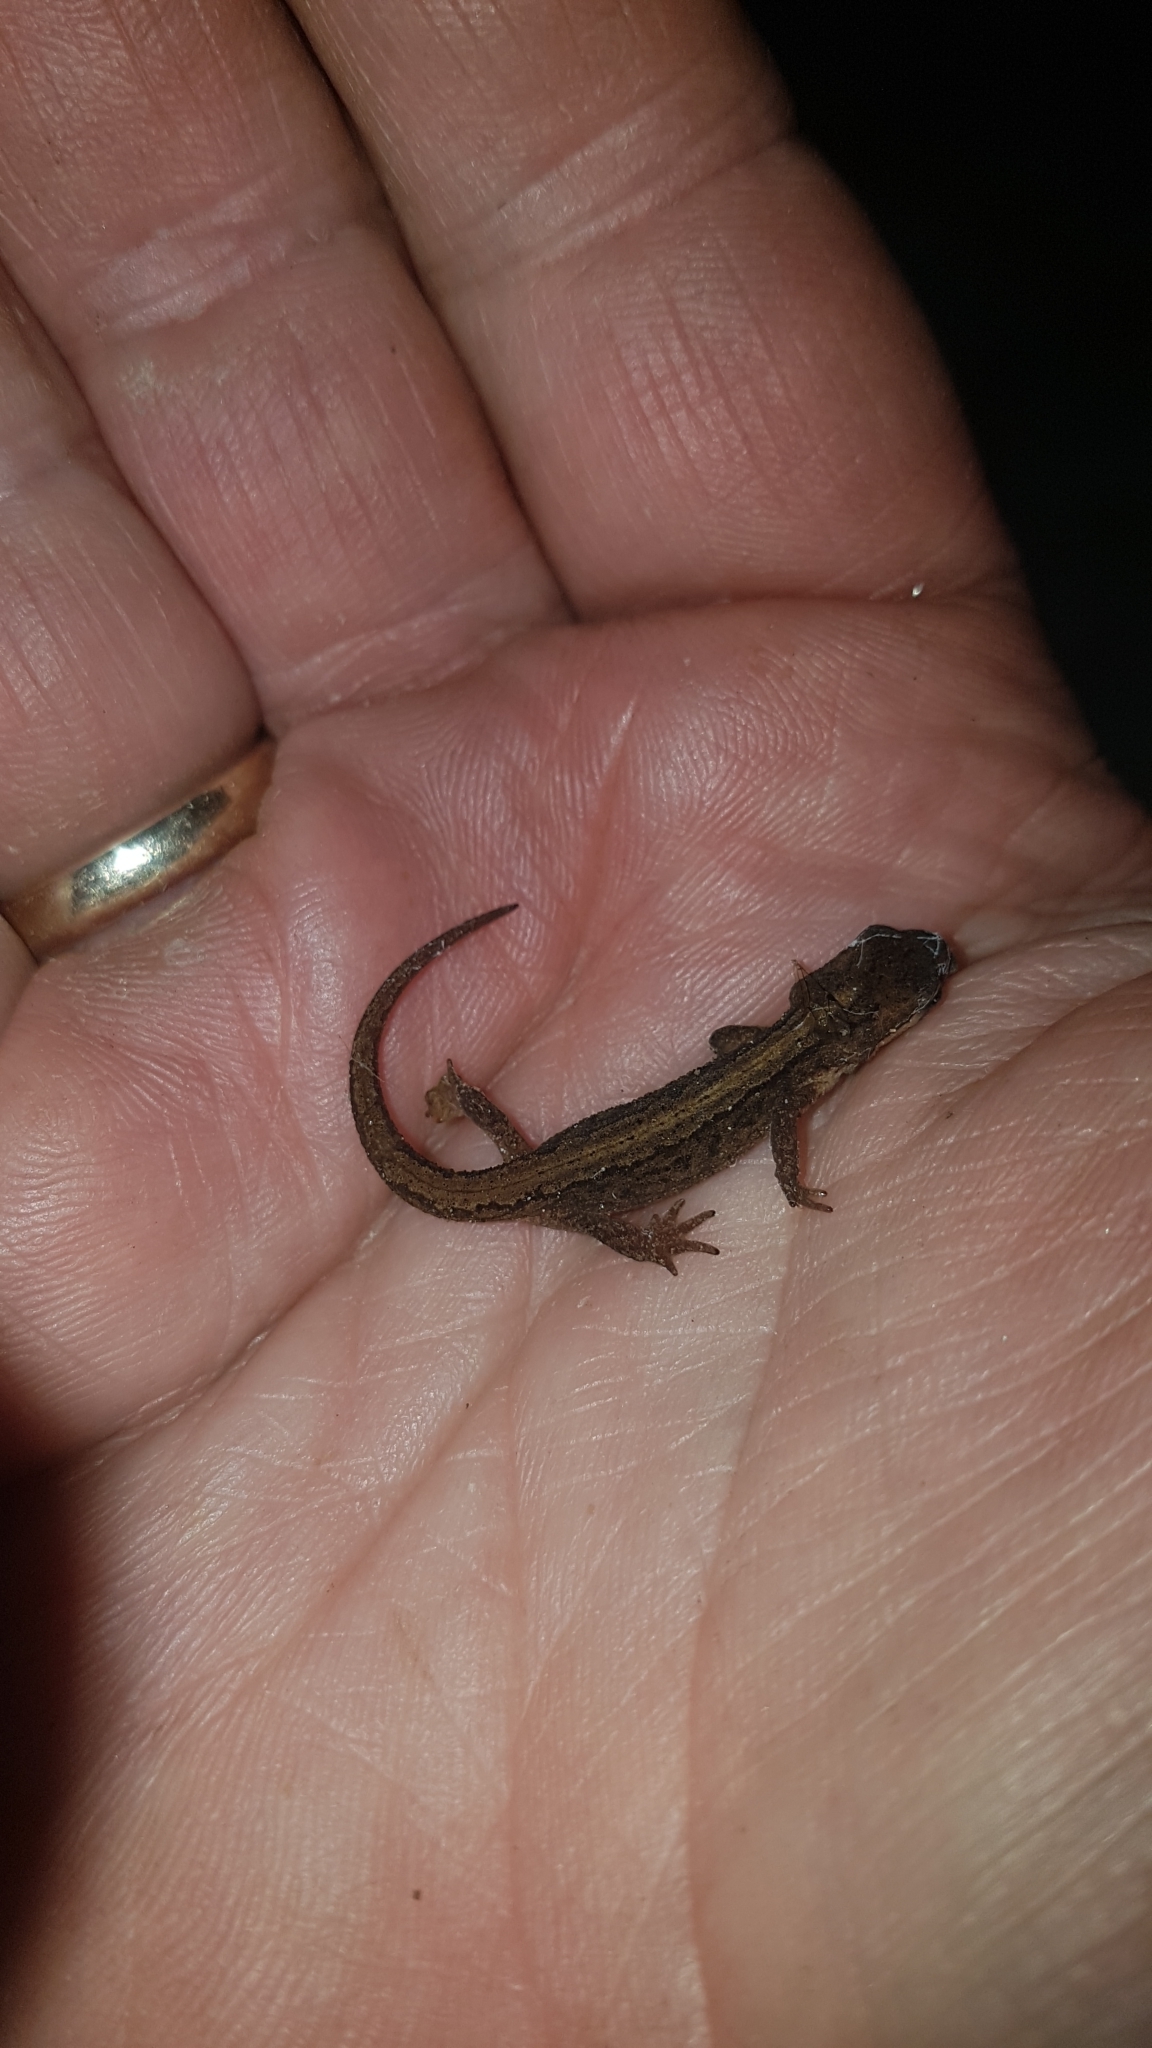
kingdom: Animalia
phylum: Chordata
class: Amphibia
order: Caudata
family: Salamandridae
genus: Lissotriton
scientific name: Lissotriton vulgaris
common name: Smooth newt
